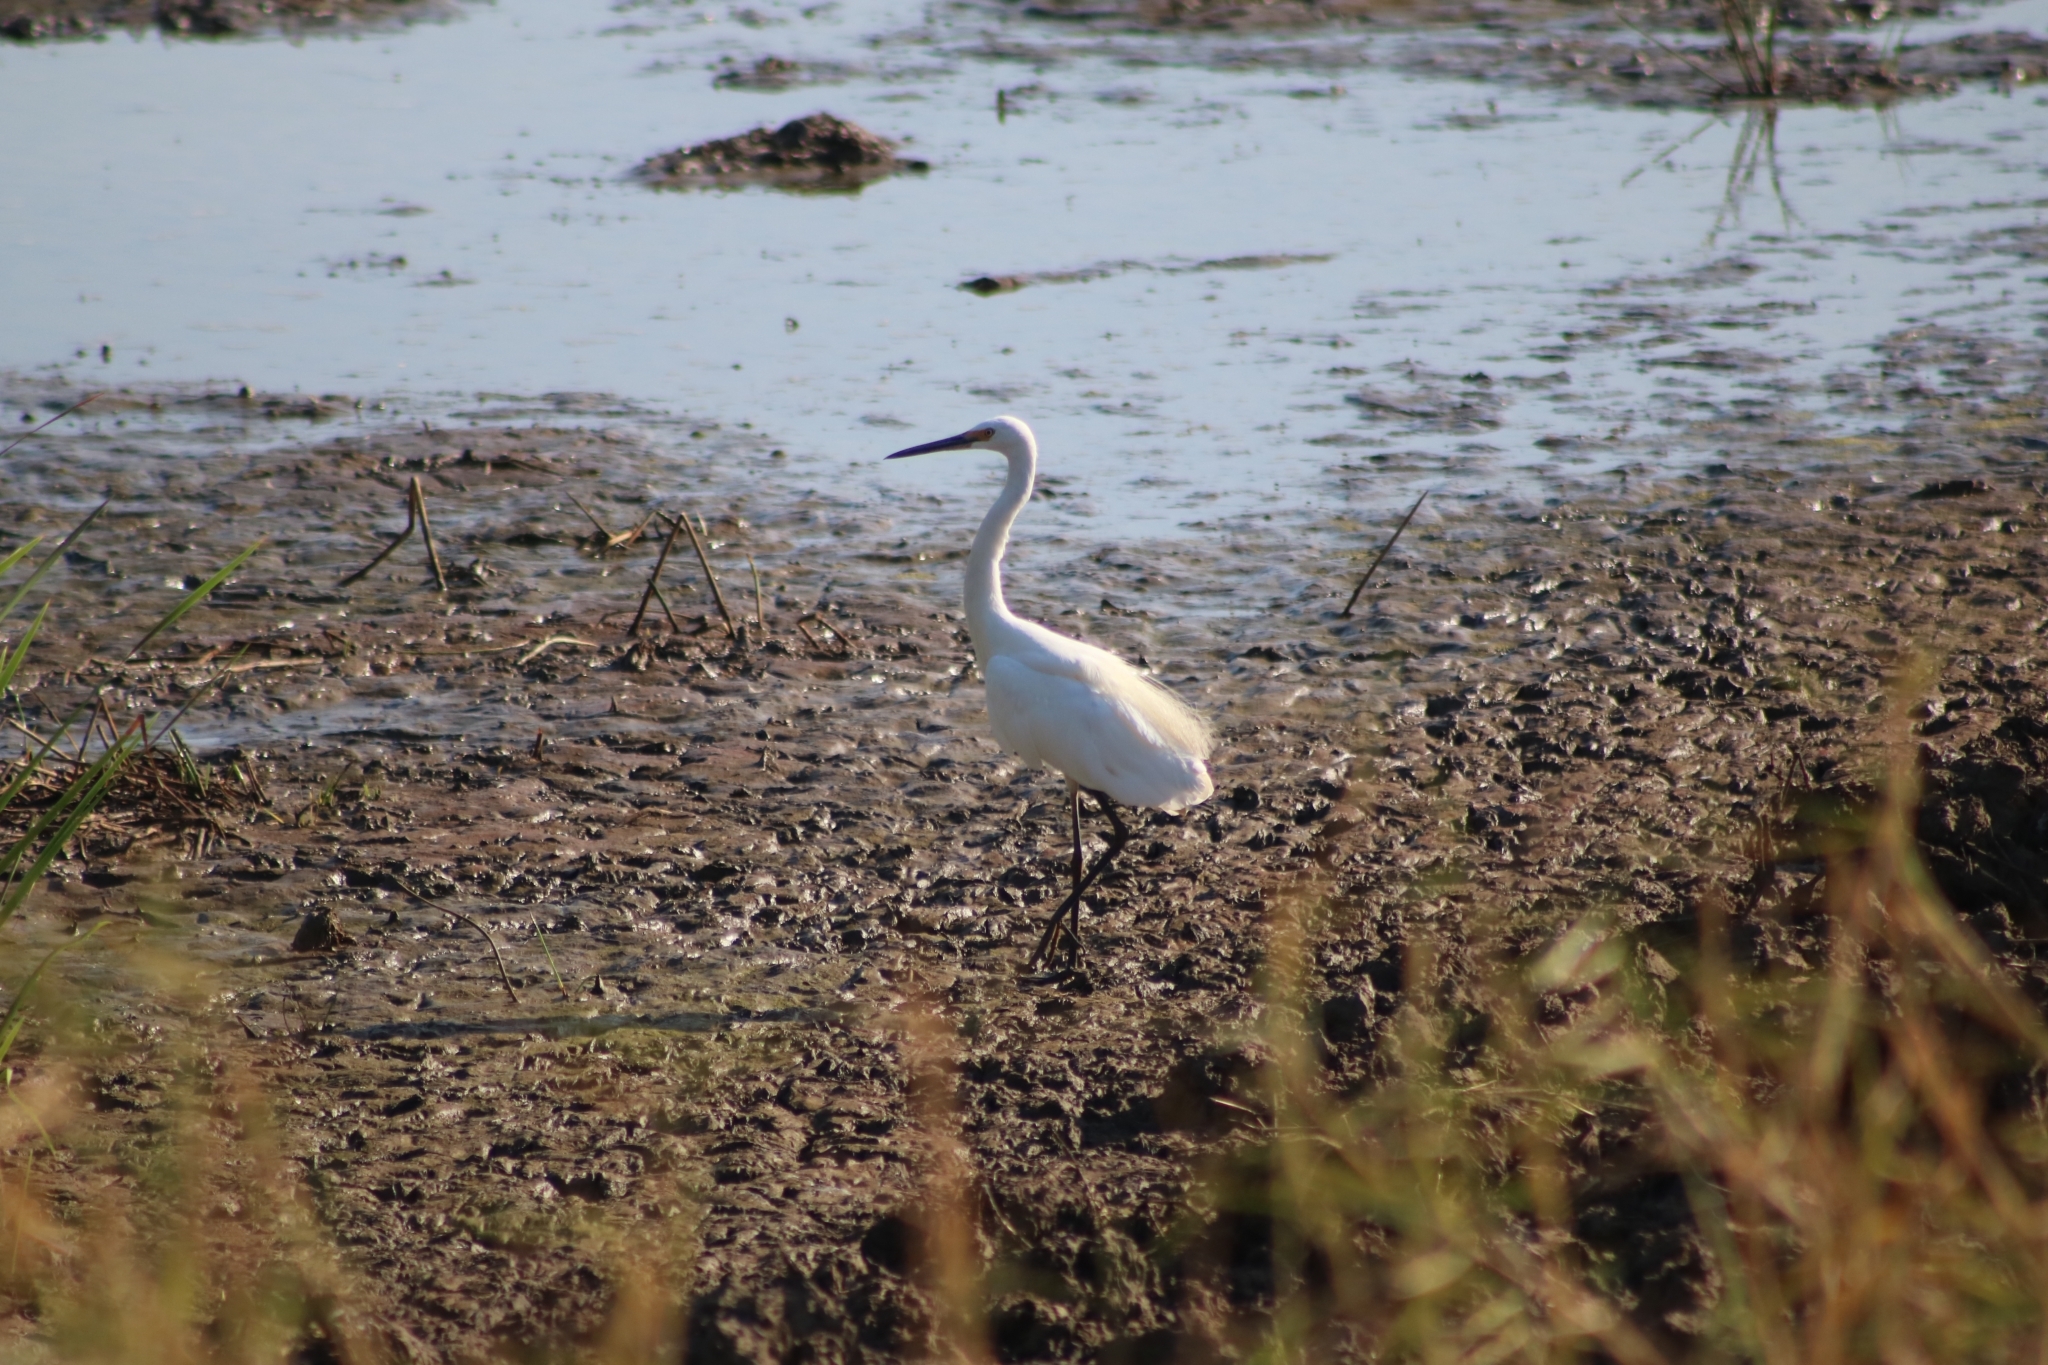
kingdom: Animalia
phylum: Chordata
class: Aves
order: Pelecaniformes
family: Ardeidae
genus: Egretta
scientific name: Egretta garzetta
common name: Little egret
